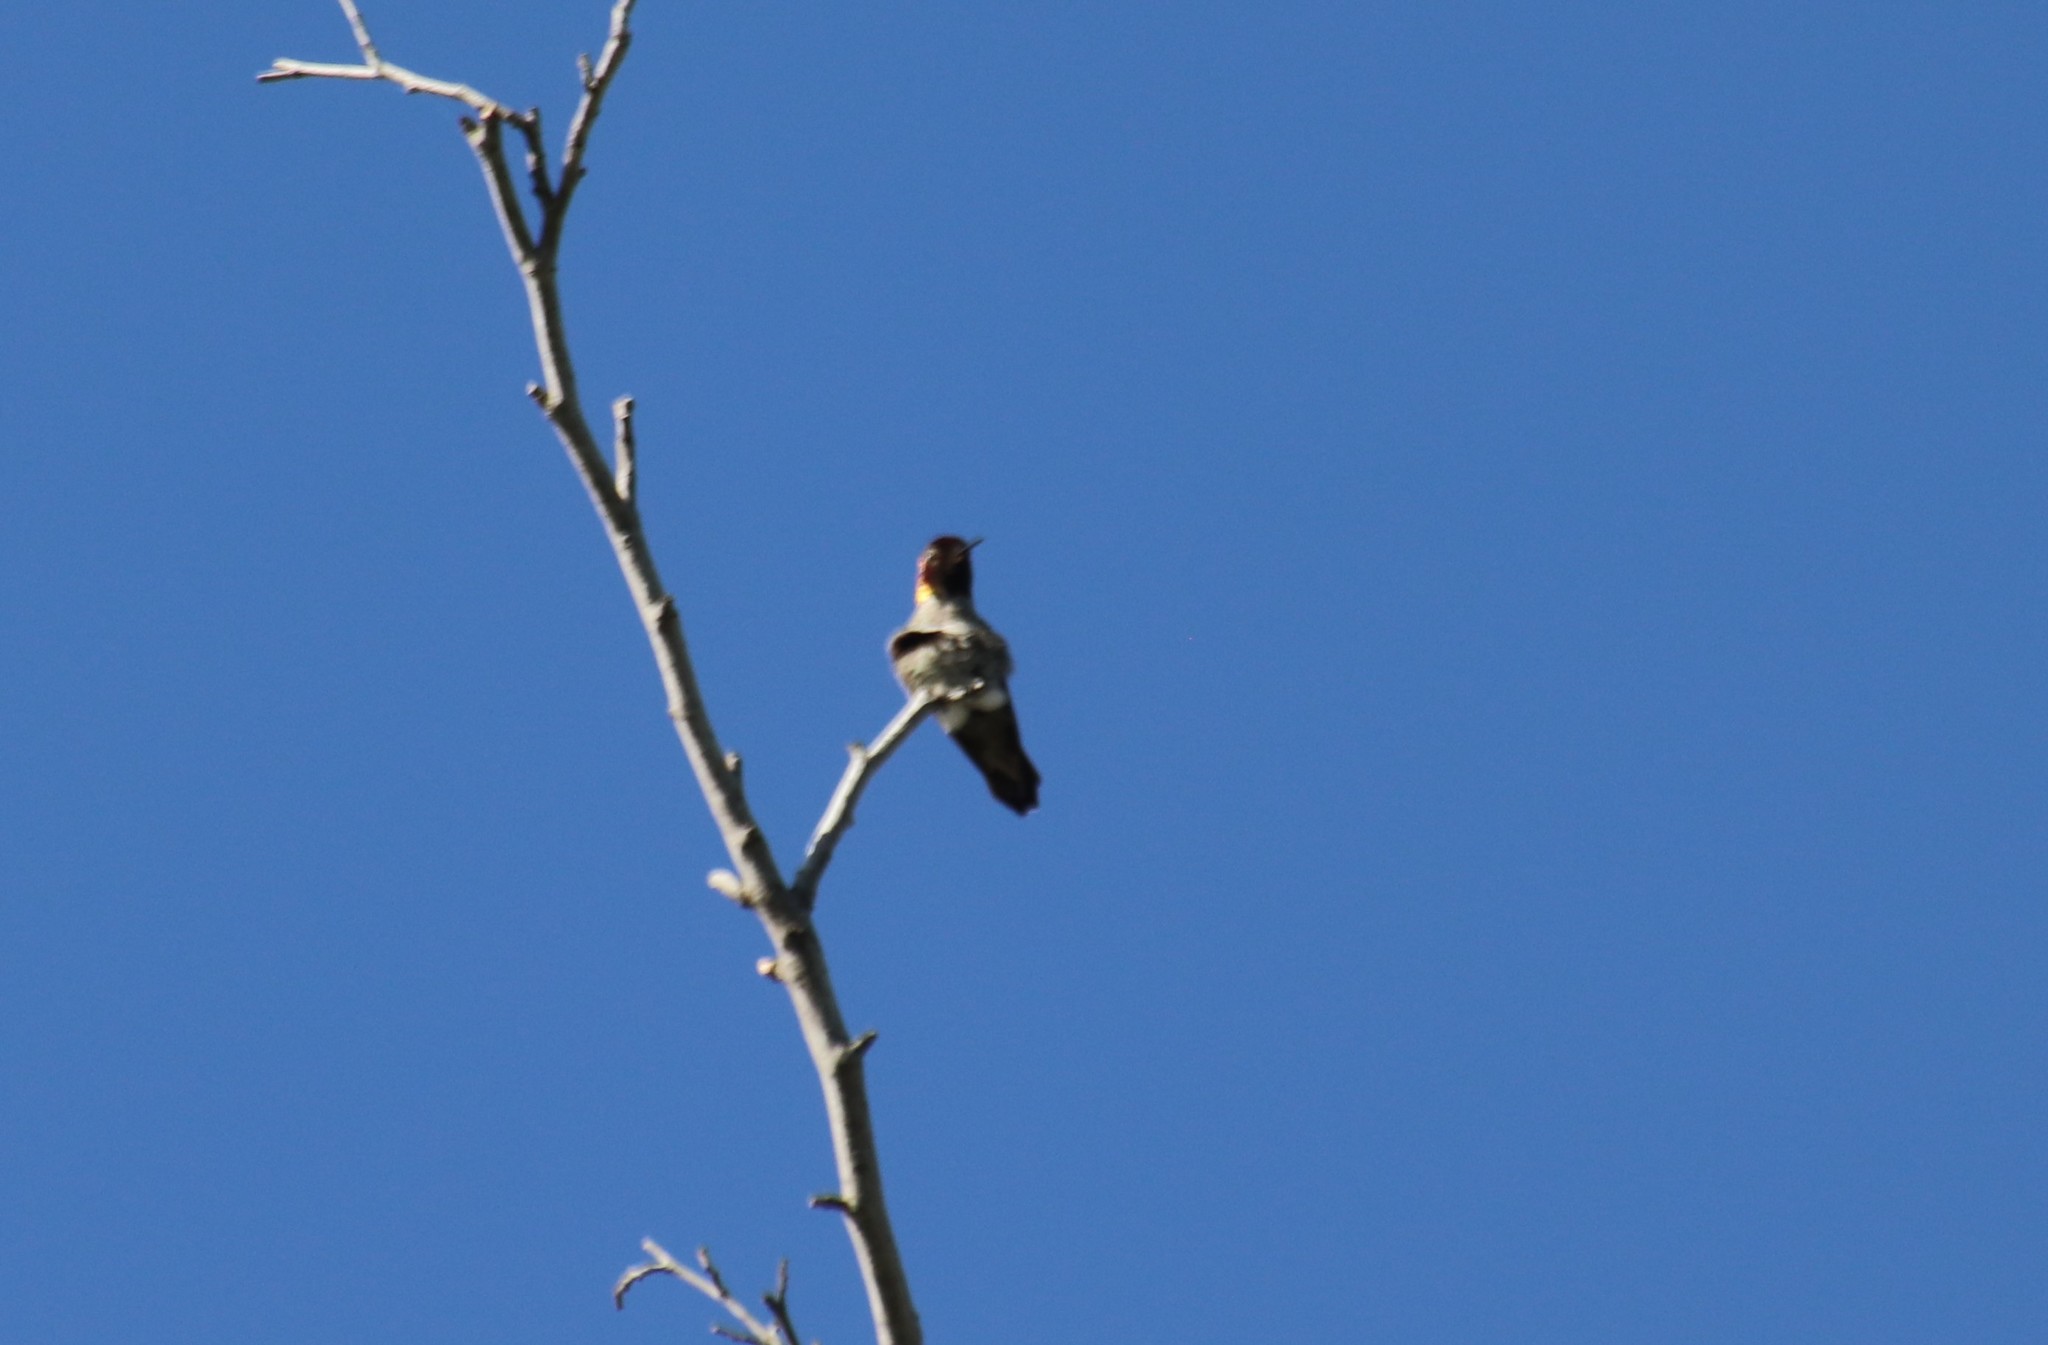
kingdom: Animalia
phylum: Chordata
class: Aves
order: Apodiformes
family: Trochilidae
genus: Calypte
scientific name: Calypte anna
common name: Anna's hummingbird
